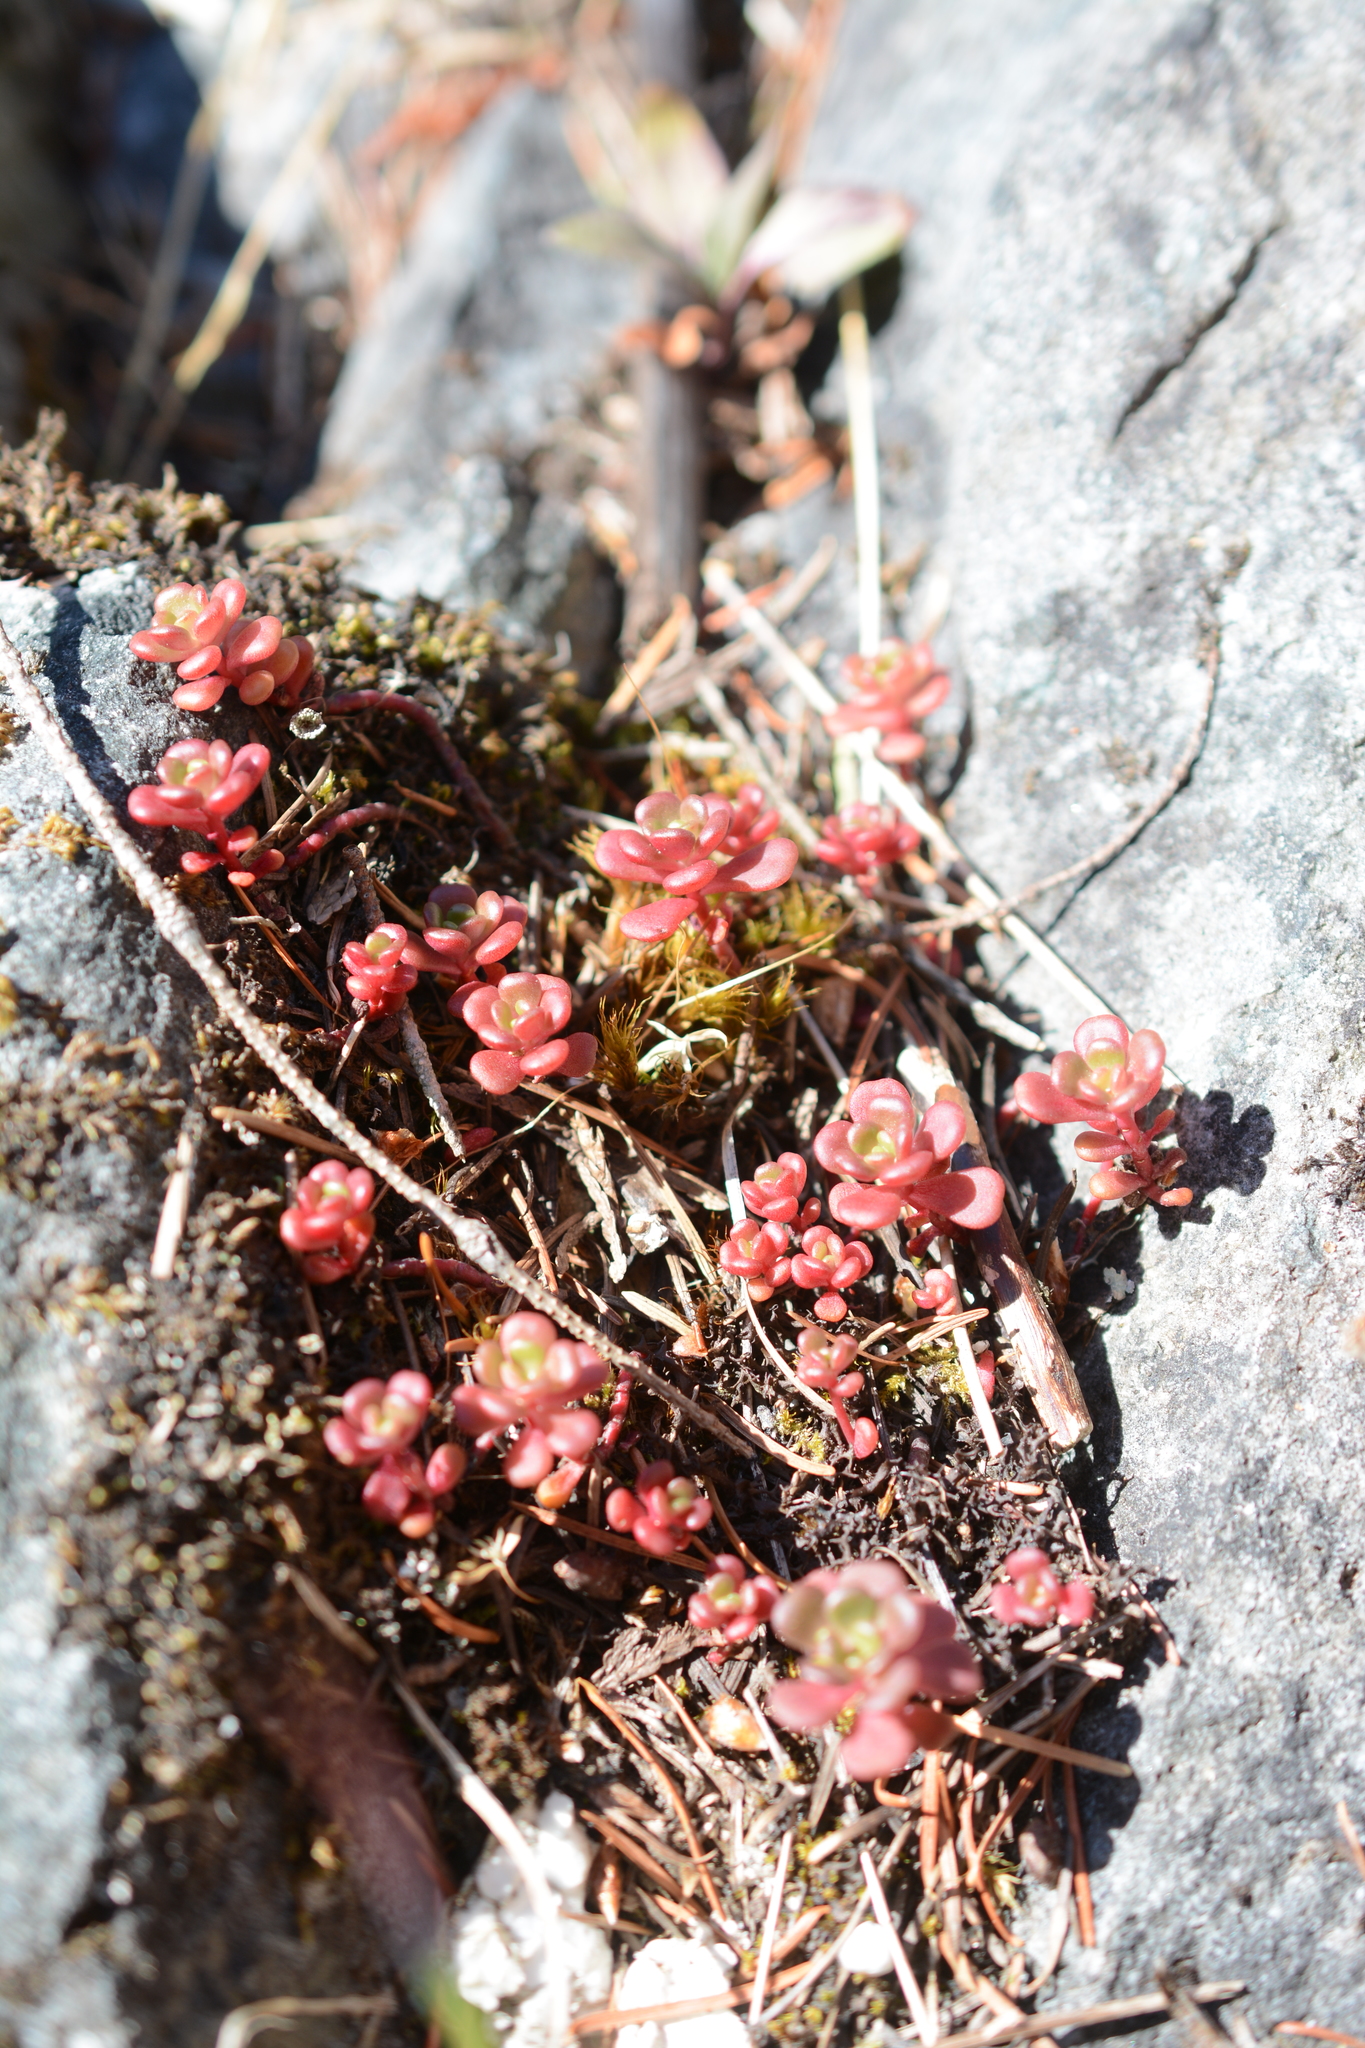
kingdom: Plantae
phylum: Tracheophyta
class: Magnoliopsida
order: Saxifragales
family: Crassulaceae
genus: Sedum
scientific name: Sedum oreganum
